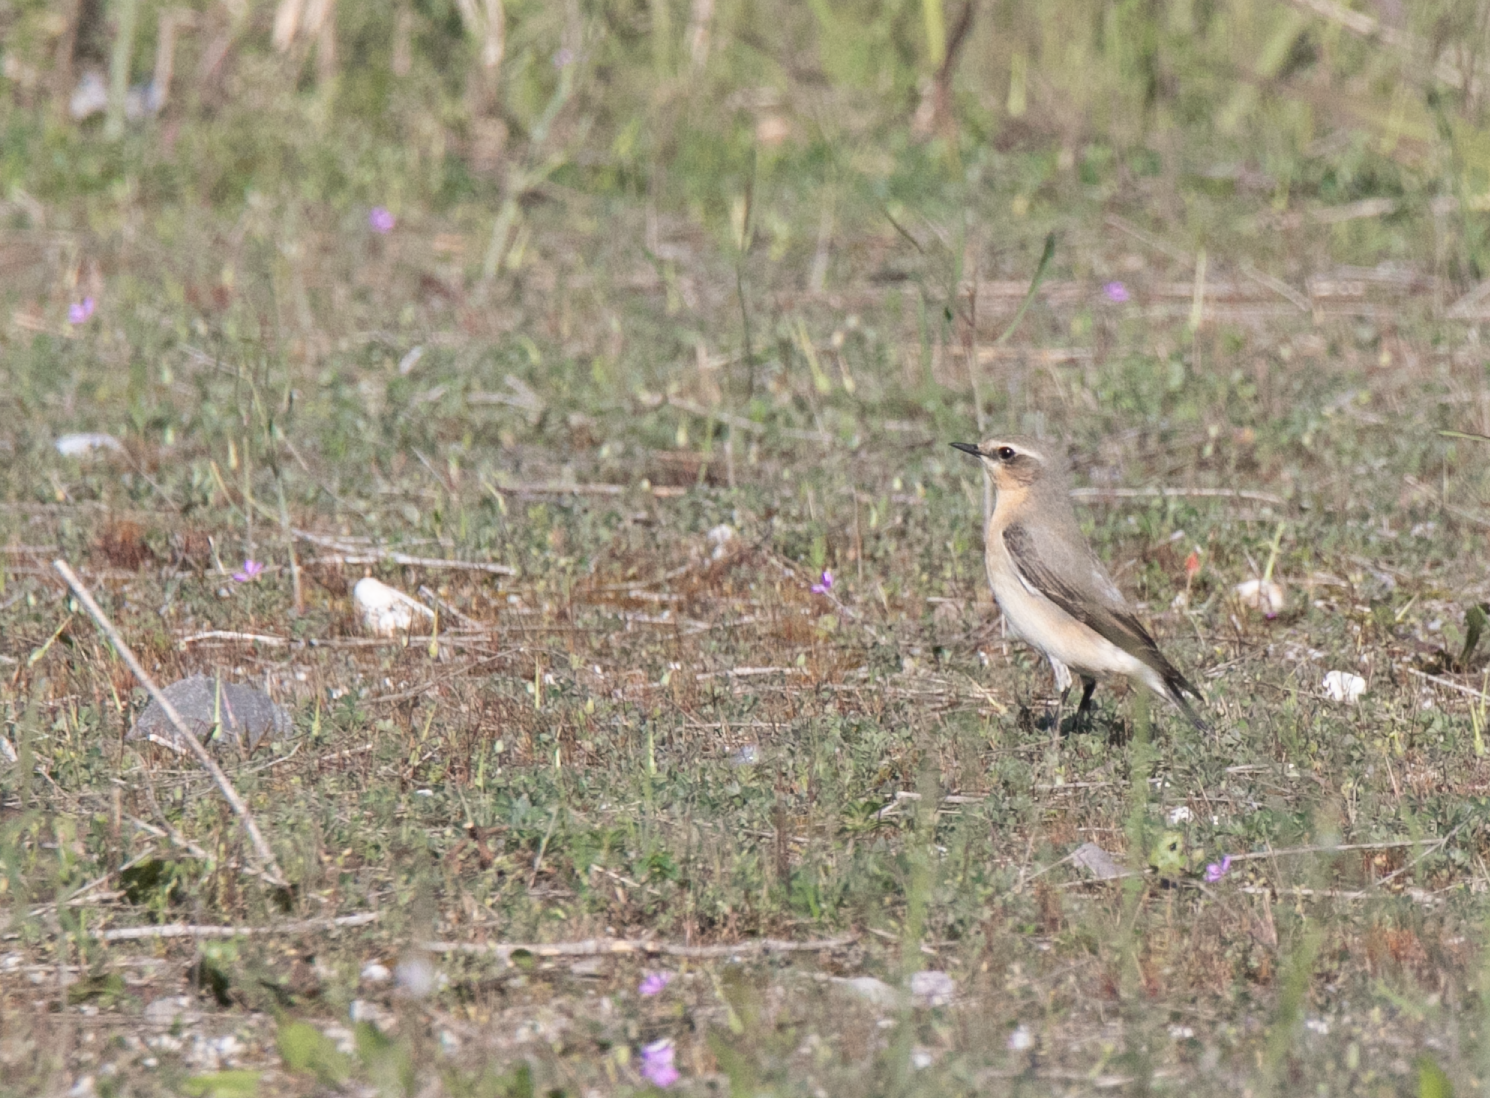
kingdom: Animalia
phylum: Chordata
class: Aves
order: Passeriformes
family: Muscicapidae
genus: Oenanthe
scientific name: Oenanthe oenanthe
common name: Northern wheatear
